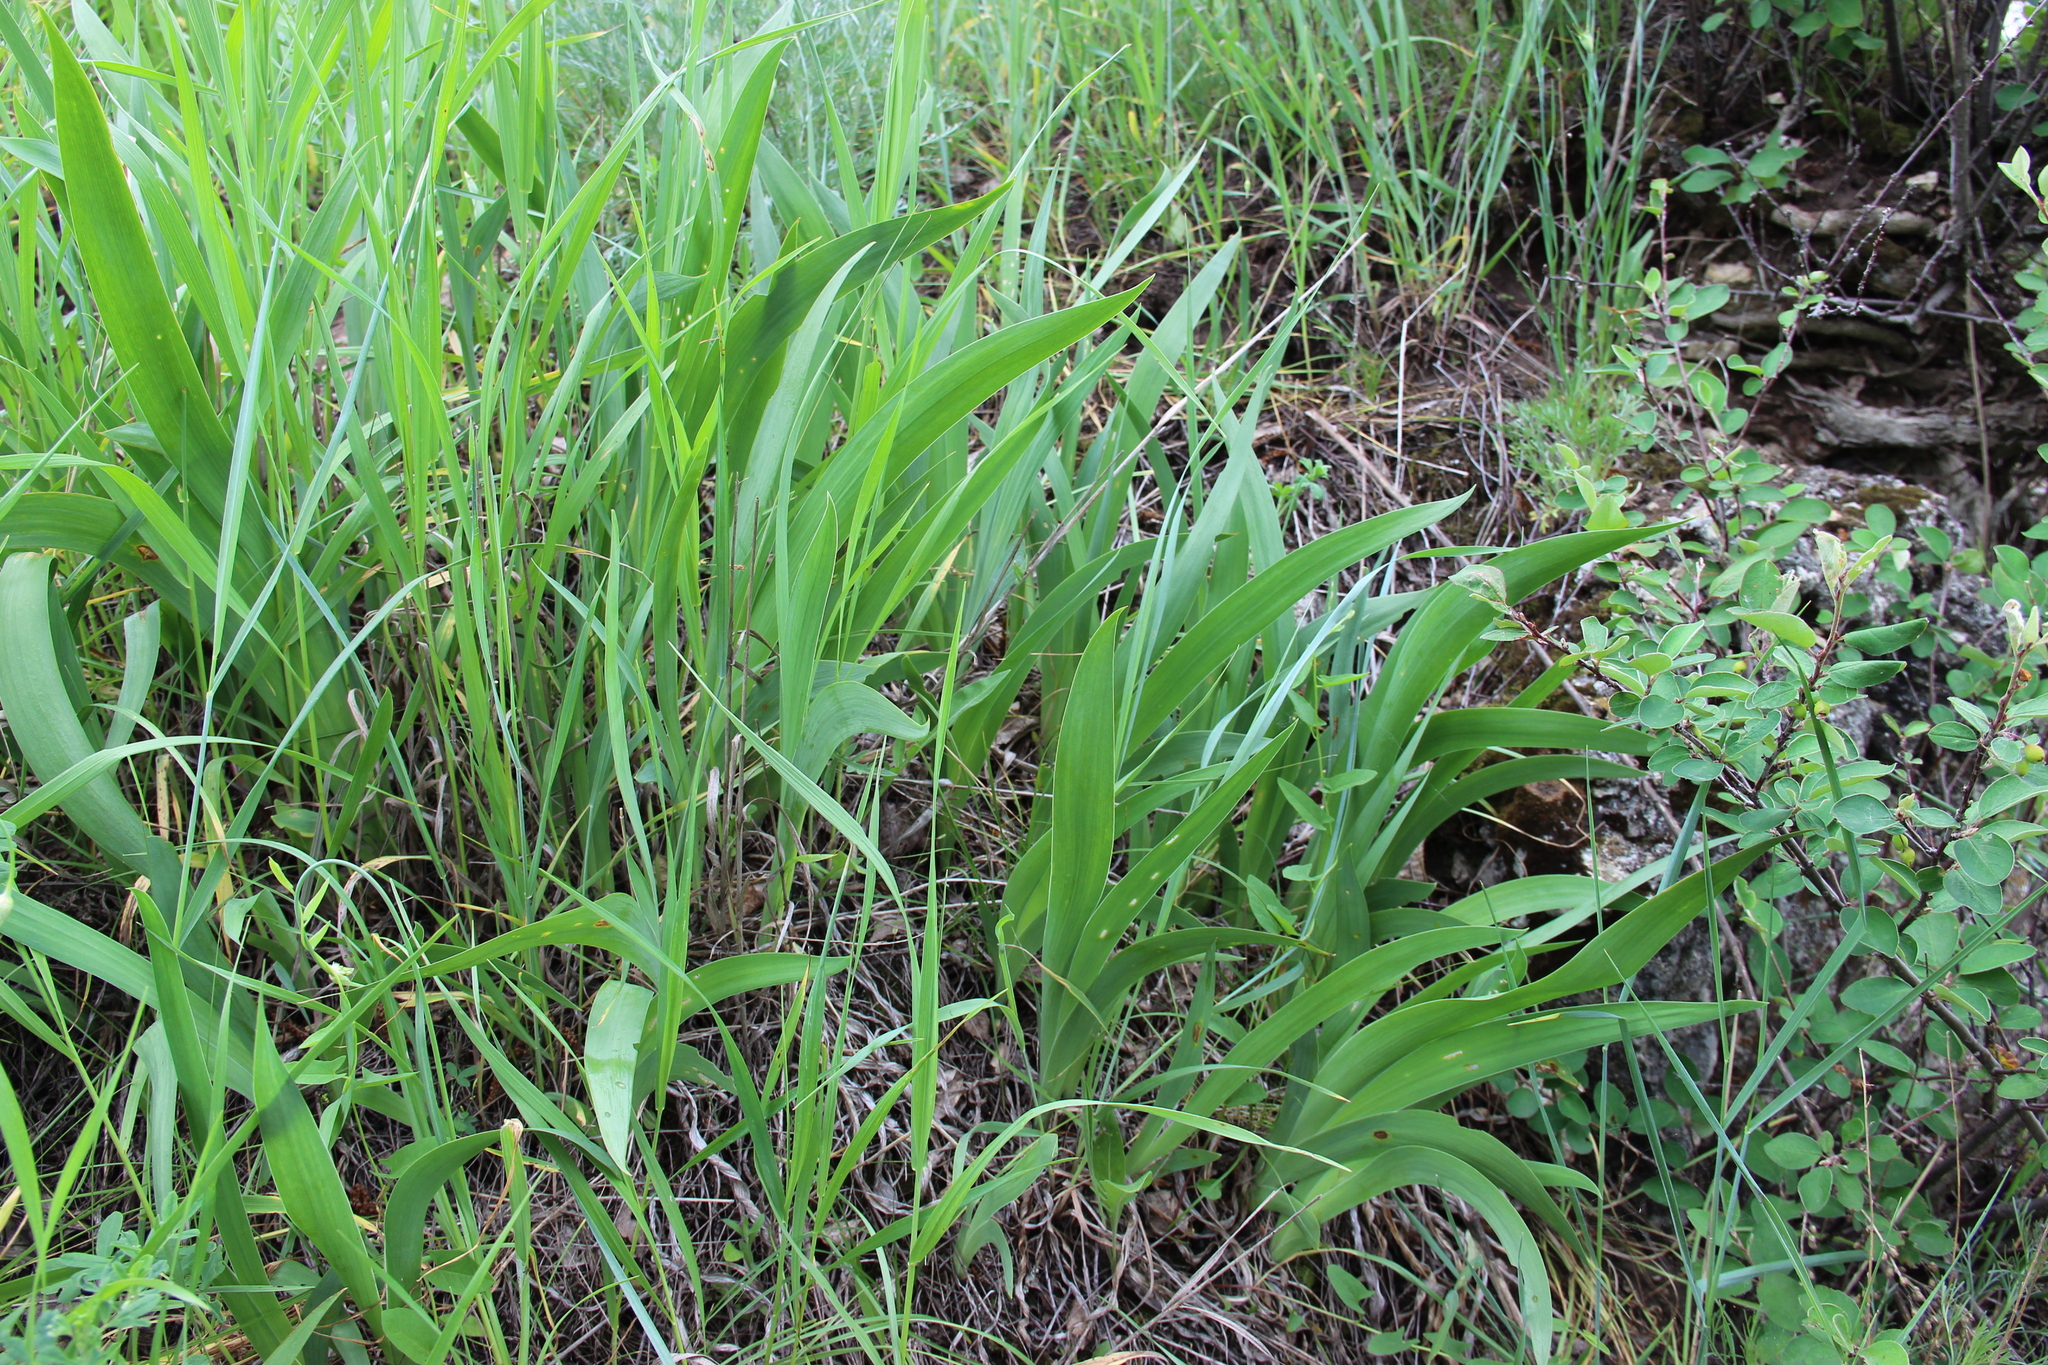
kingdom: Plantae
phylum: Tracheophyta
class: Liliopsida
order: Asparagales
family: Iridaceae
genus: Iris
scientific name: Iris aphylla
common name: Stool iris
